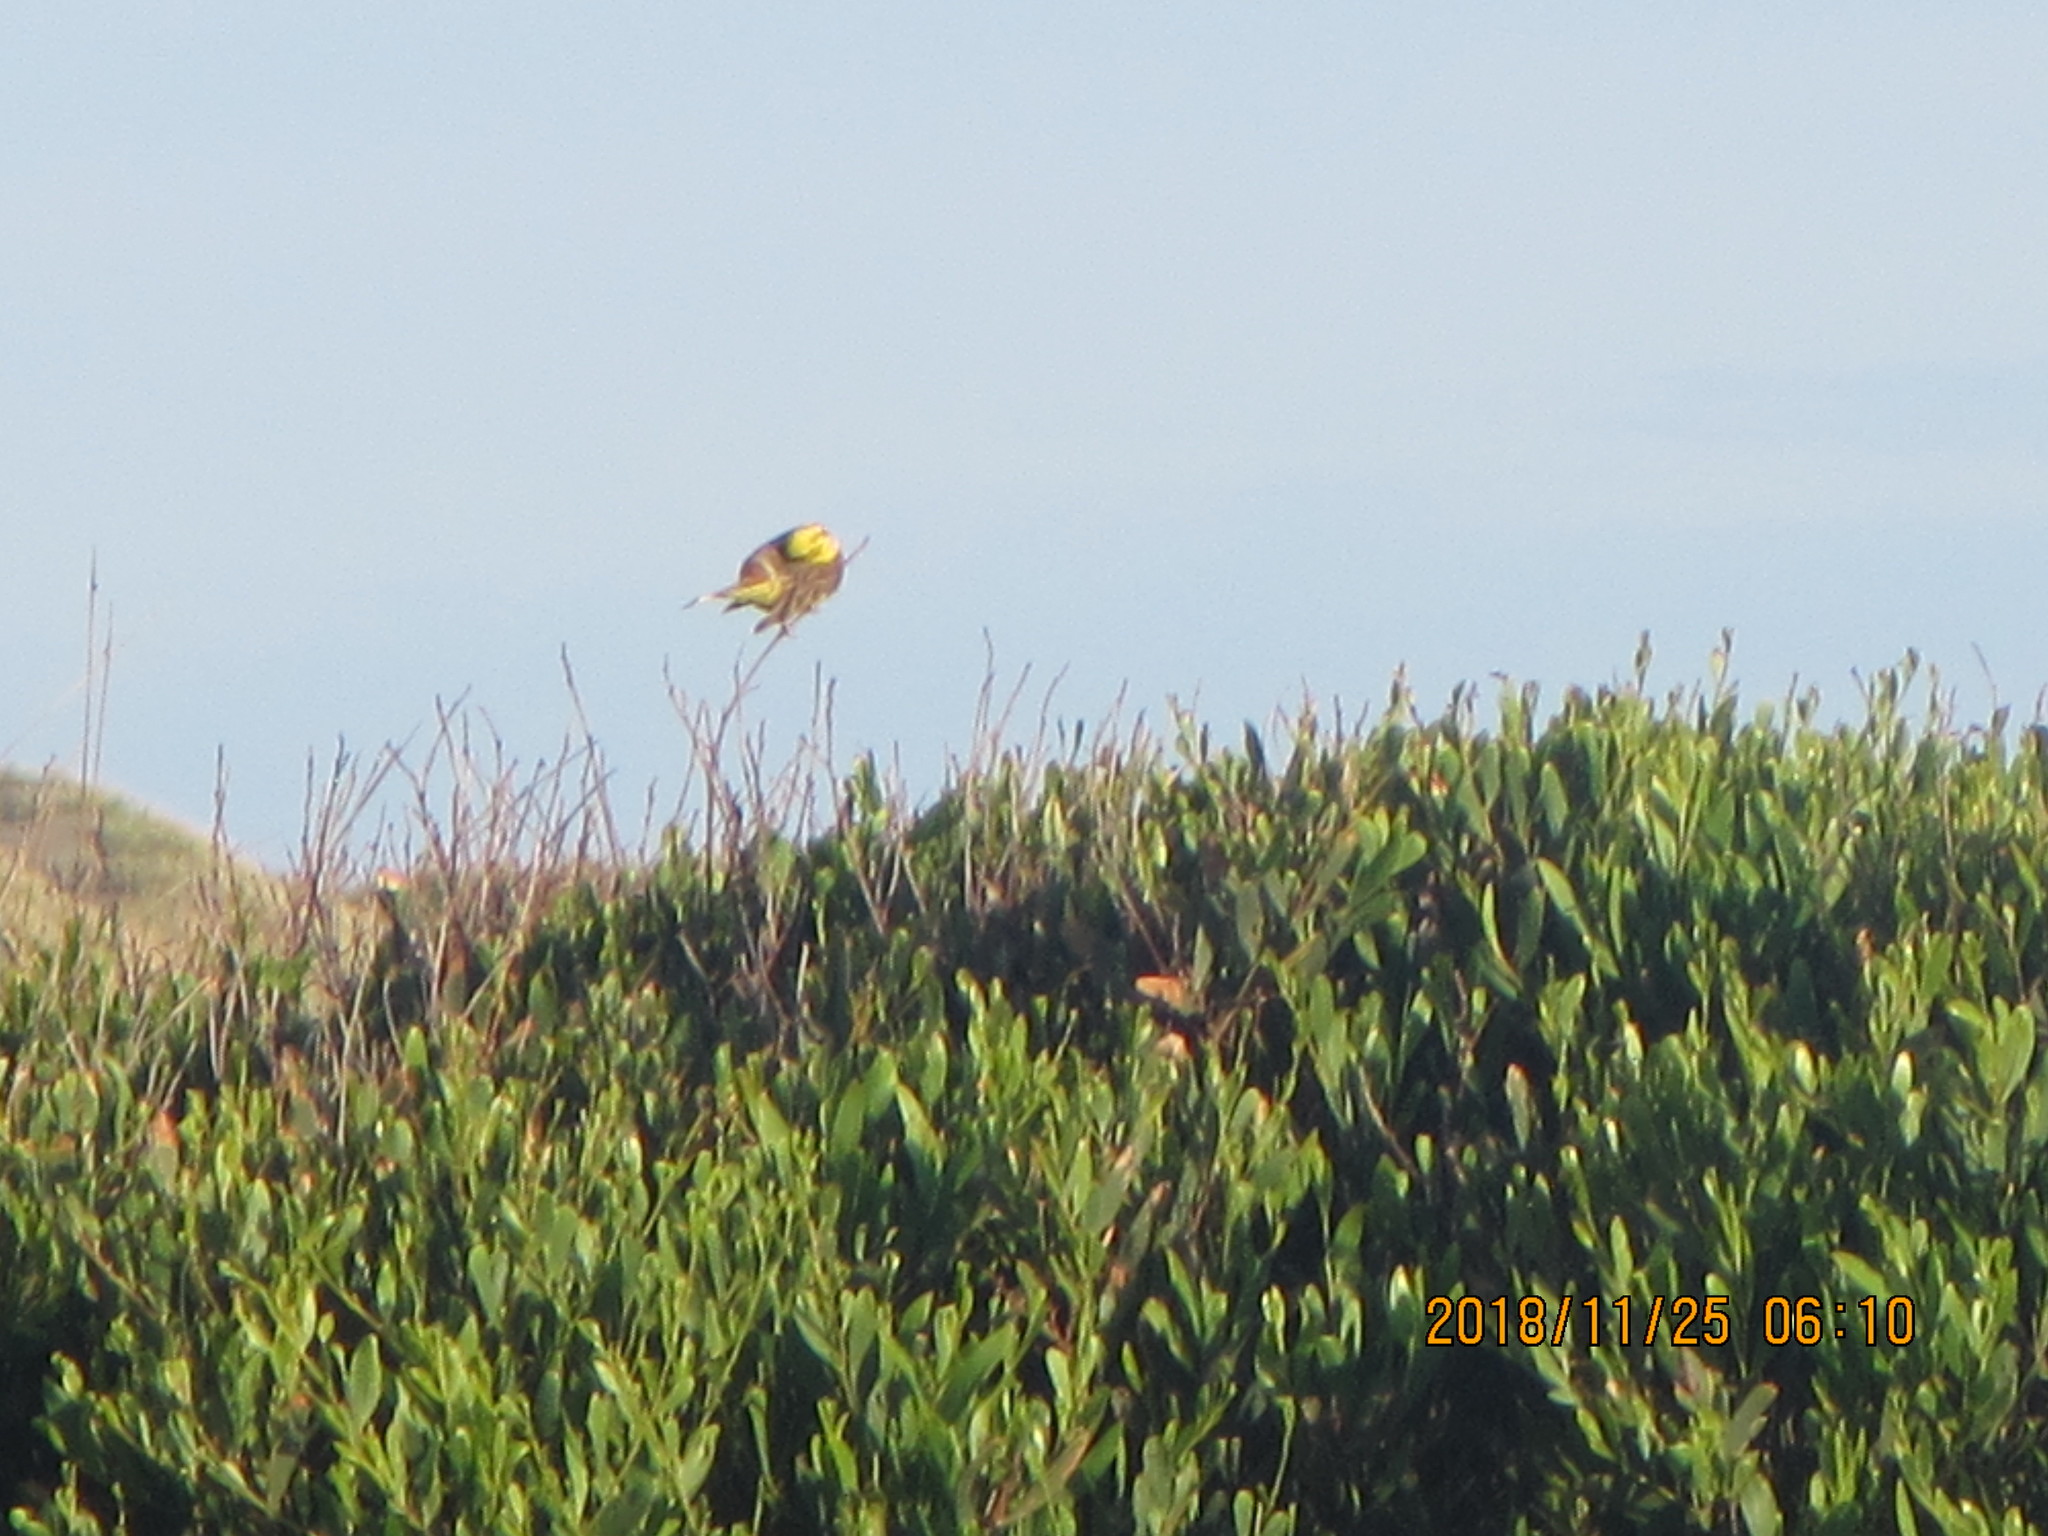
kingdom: Animalia
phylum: Chordata
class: Aves
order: Passeriformes
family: Emberizidae
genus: Emberiza
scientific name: Emberiza citrinella
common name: Yellowhammer
